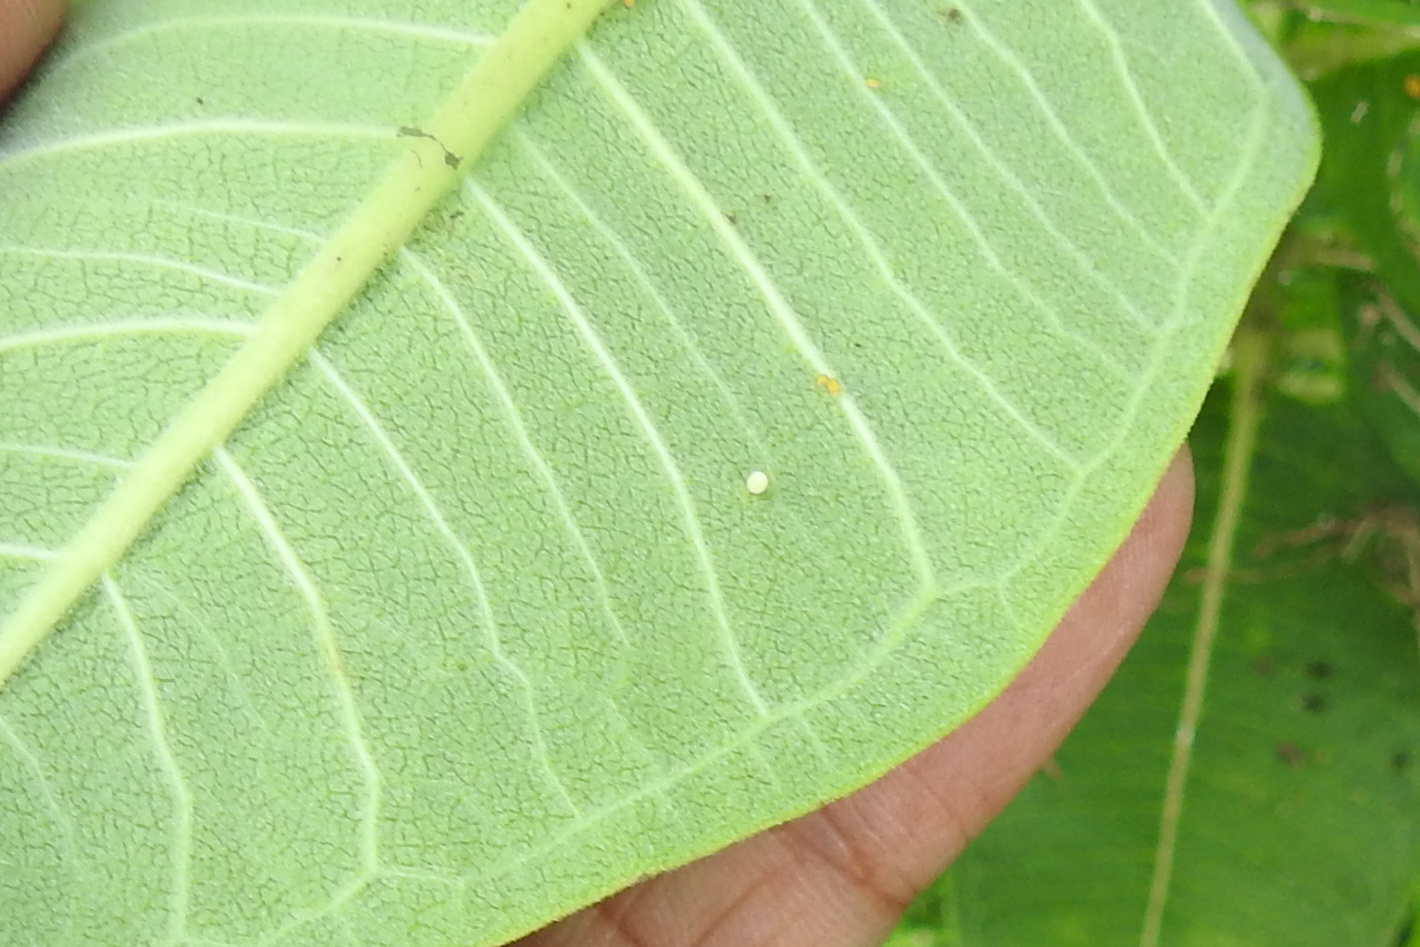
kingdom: Animalia
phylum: Arthropoda
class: Insecta
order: Lepidoptera
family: Nymphalidae
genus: Danaus
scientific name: Danaus plexippus
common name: Monarch
